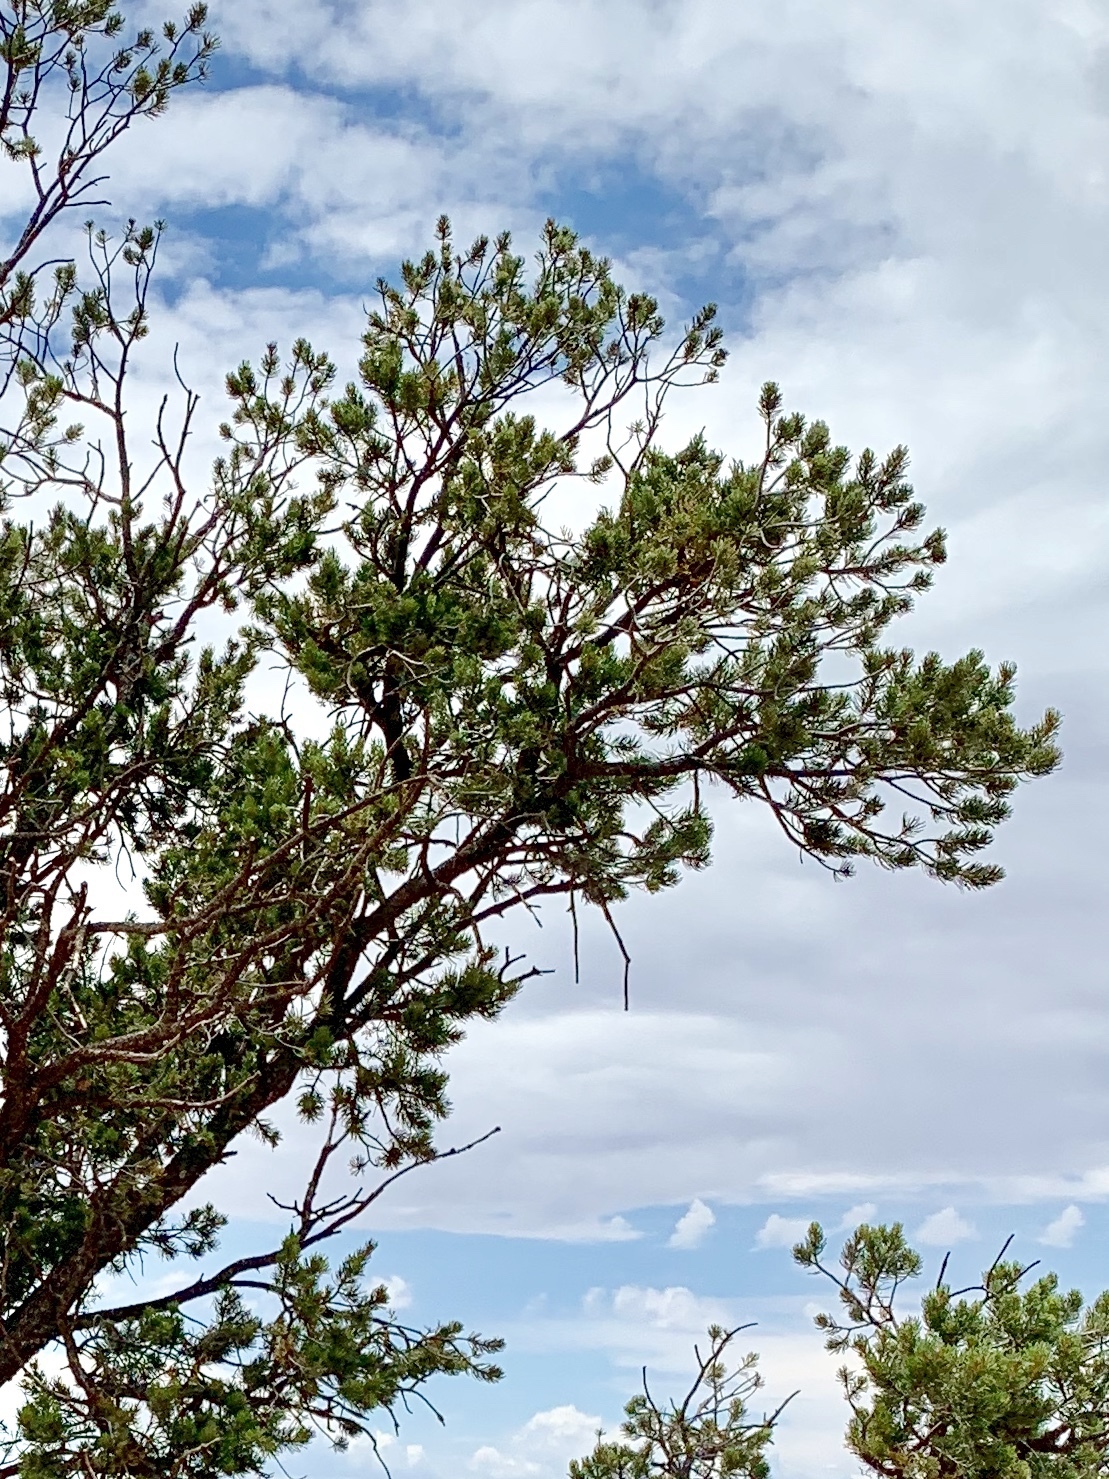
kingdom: Plantae
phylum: Tracheophyta
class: Pinopsida
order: Pinales
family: Pinaceae
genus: Pinus
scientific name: Pinus edulis
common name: Colorado pinyon
